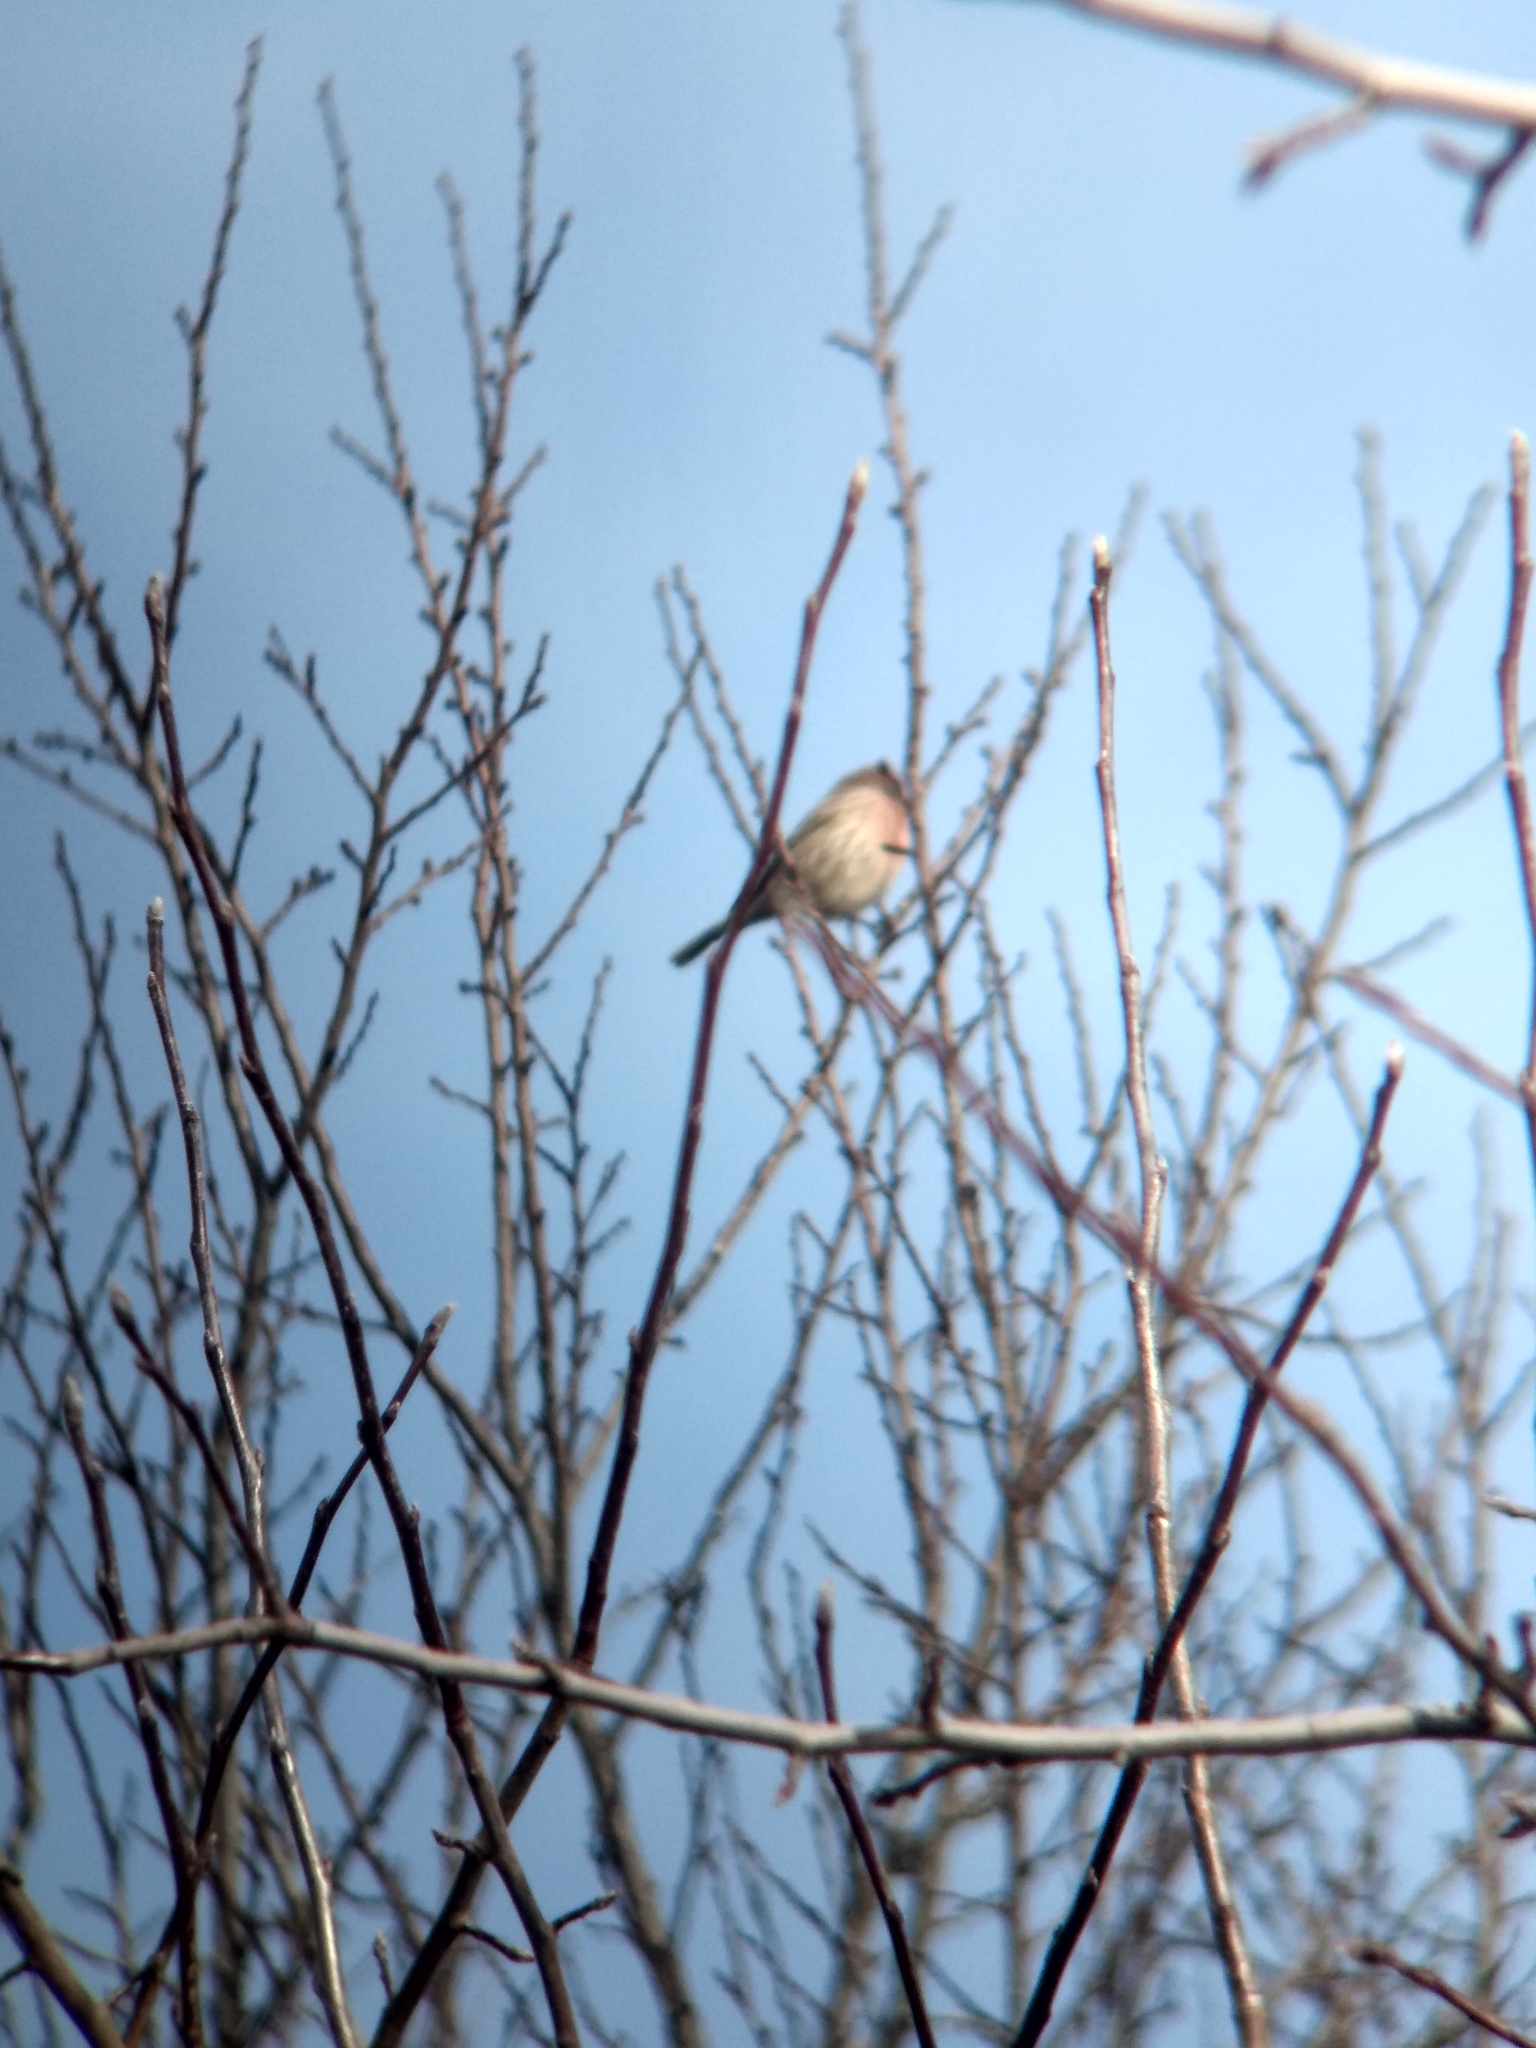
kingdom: Animalia
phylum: Chordata
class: Aves
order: Passeriformes
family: Fringillidae
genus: Haemorhous
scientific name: Haemorhous mexicanus
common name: House finch
